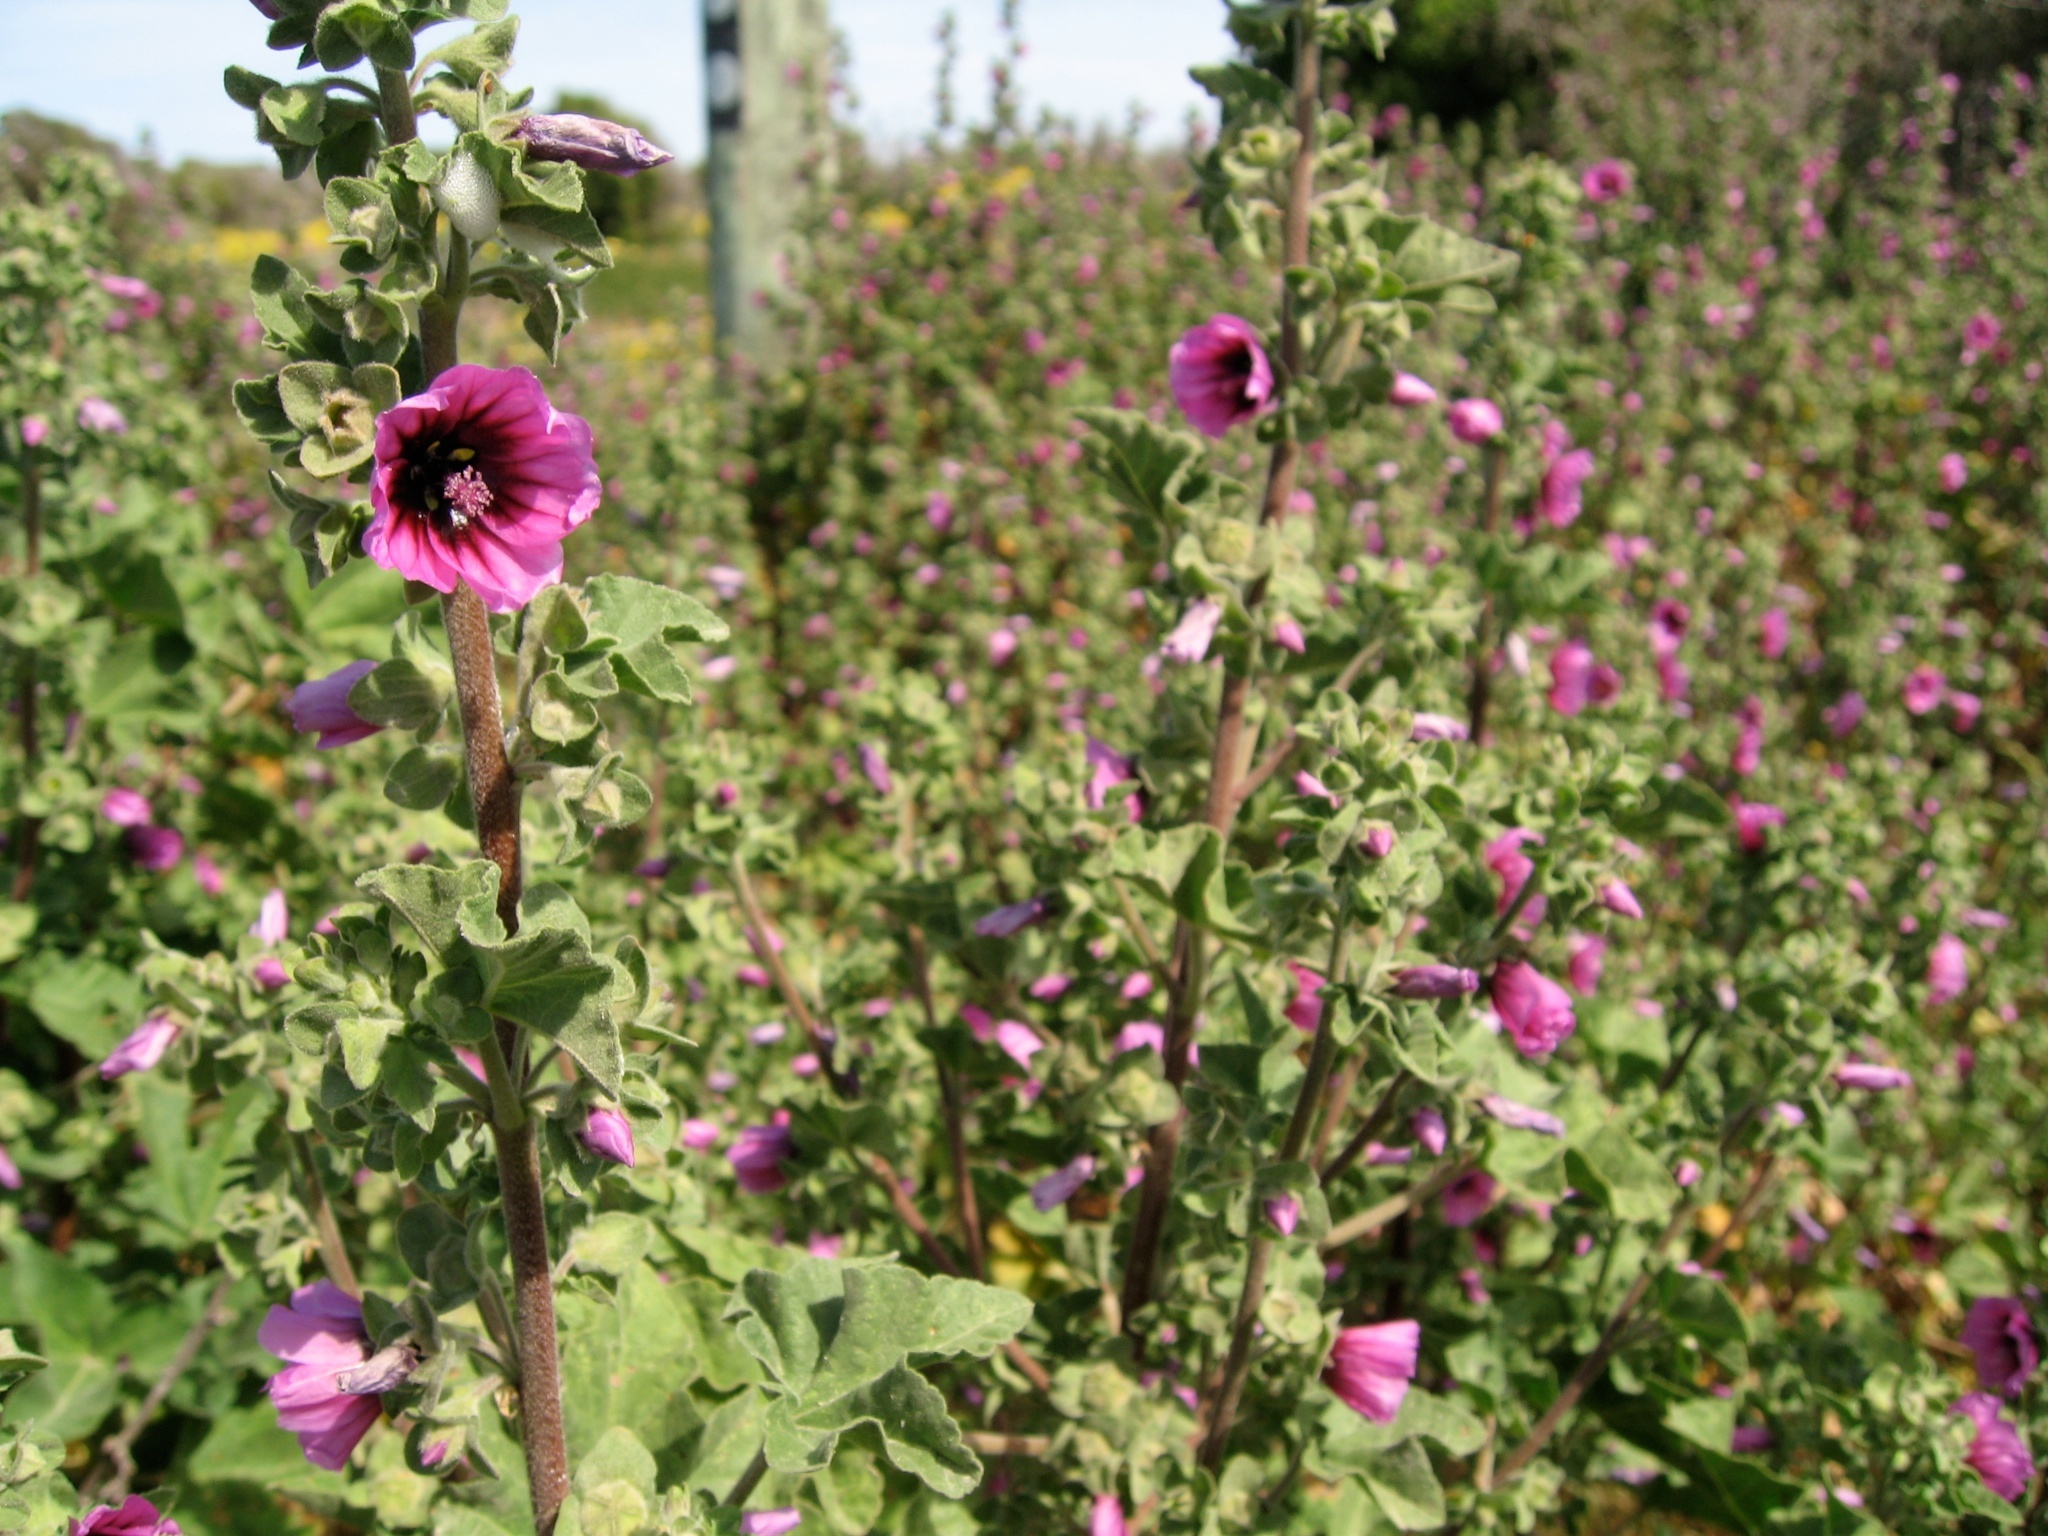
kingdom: Plantae
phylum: Tracheophyta
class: Magnoliopsida
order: Malvales
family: Malvaceae
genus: Malva
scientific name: Malva arborea
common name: Tree mallow
